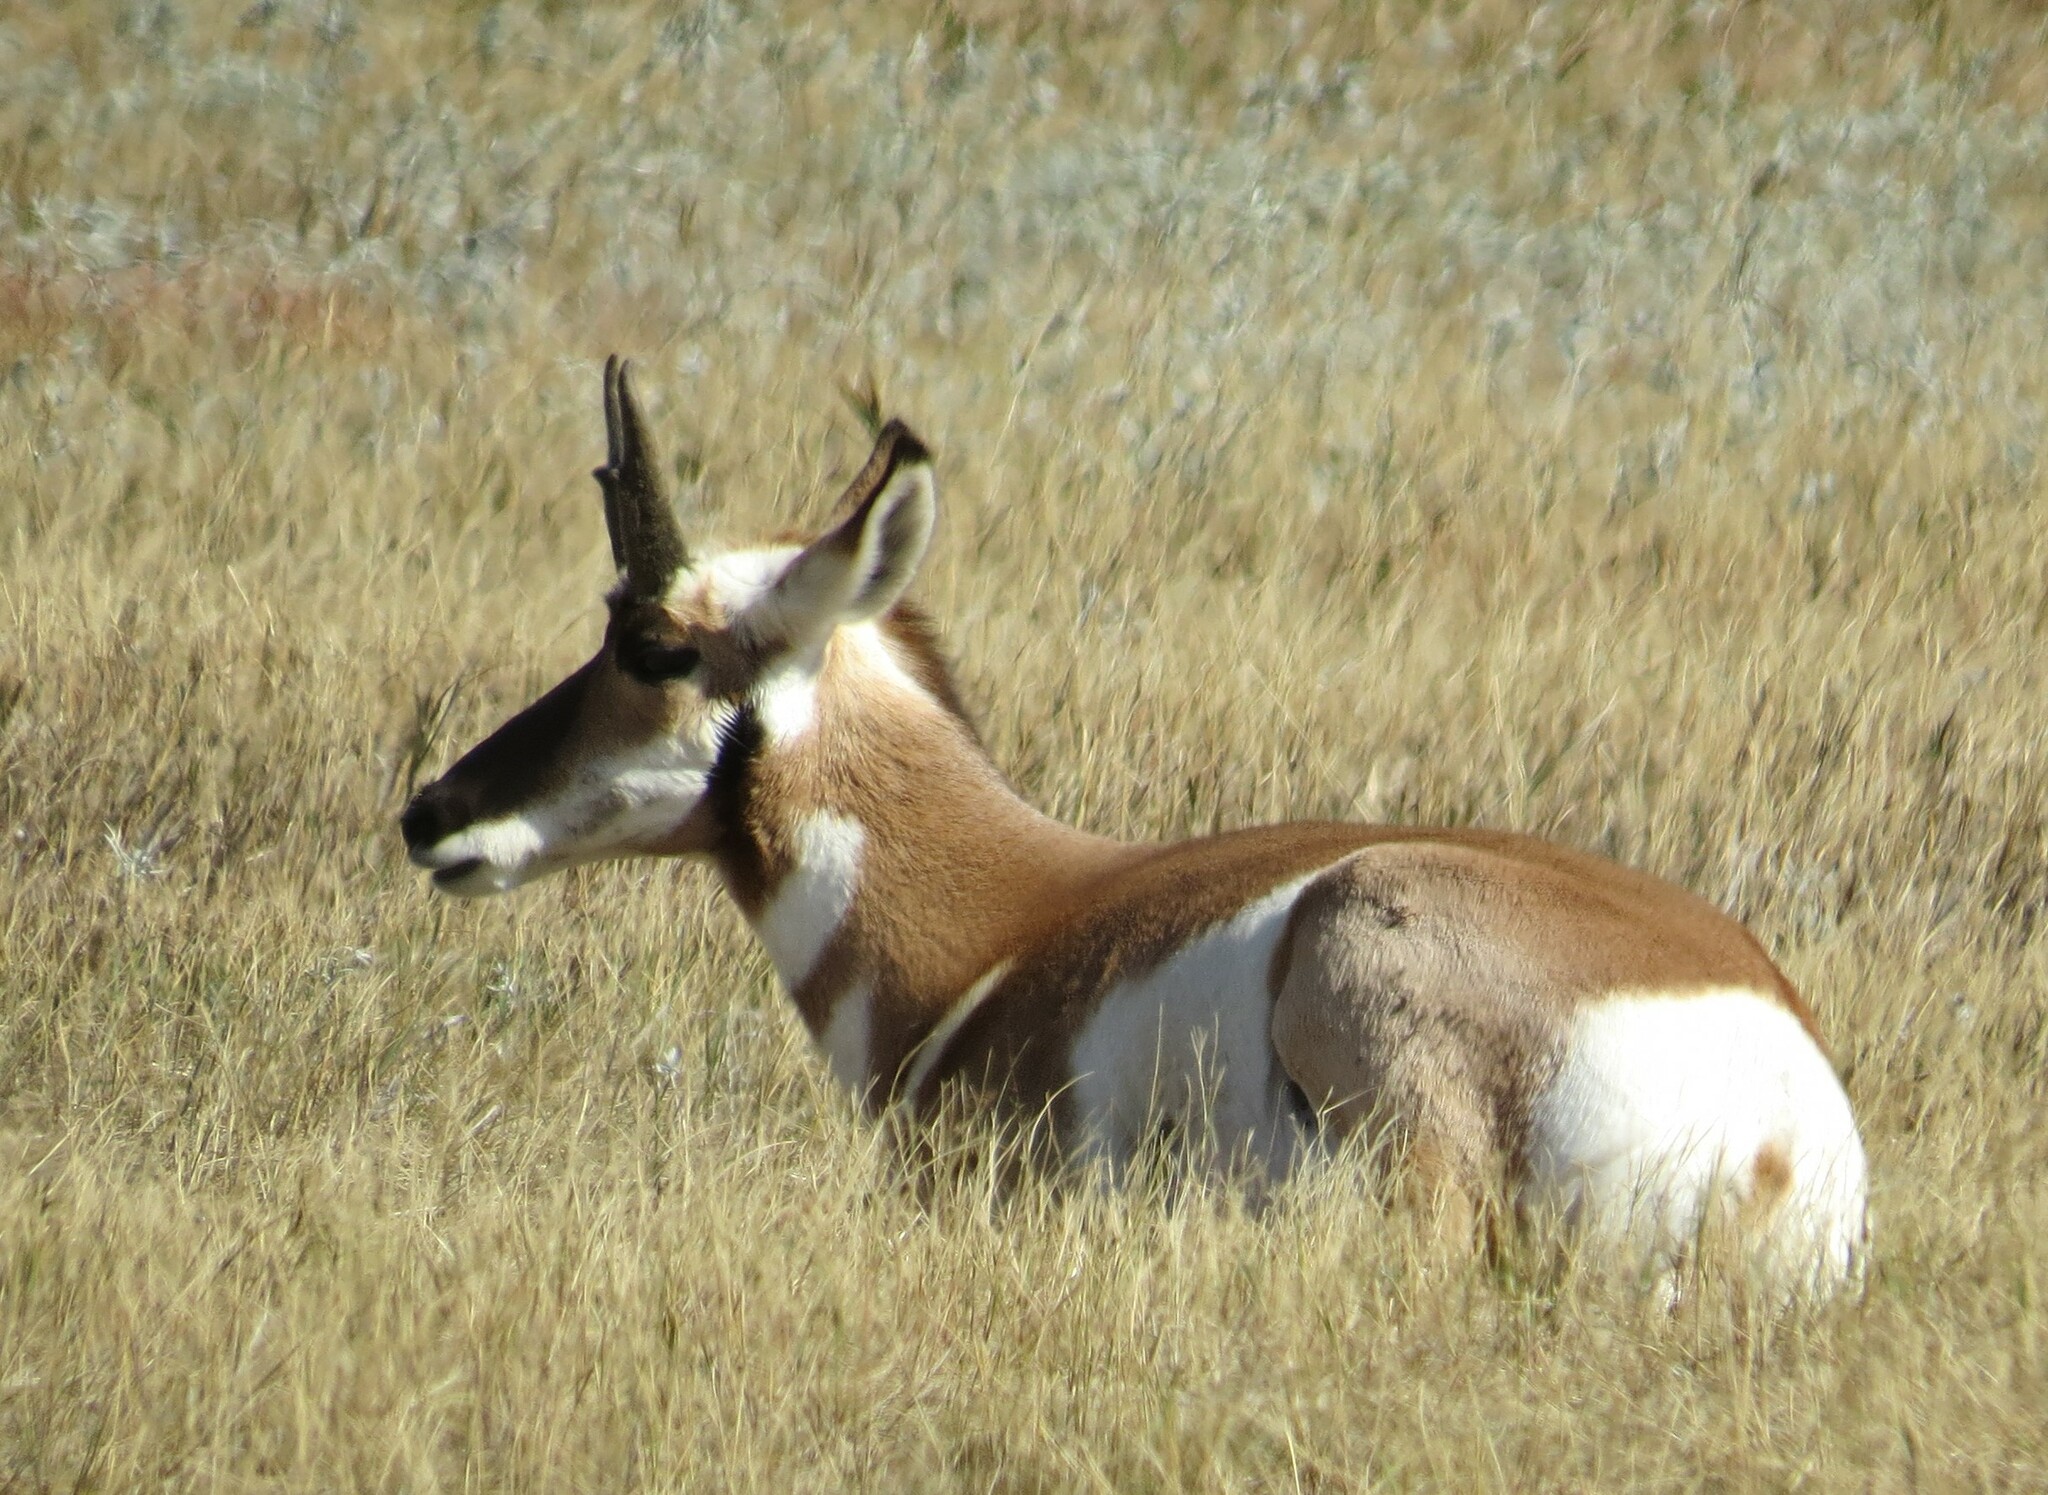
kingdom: Animalia
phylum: Chordata
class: Mammalia
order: Artiodactyla
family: Antilocapridae
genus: Antilocapra
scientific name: Antilocapra americana
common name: Pronghorn
